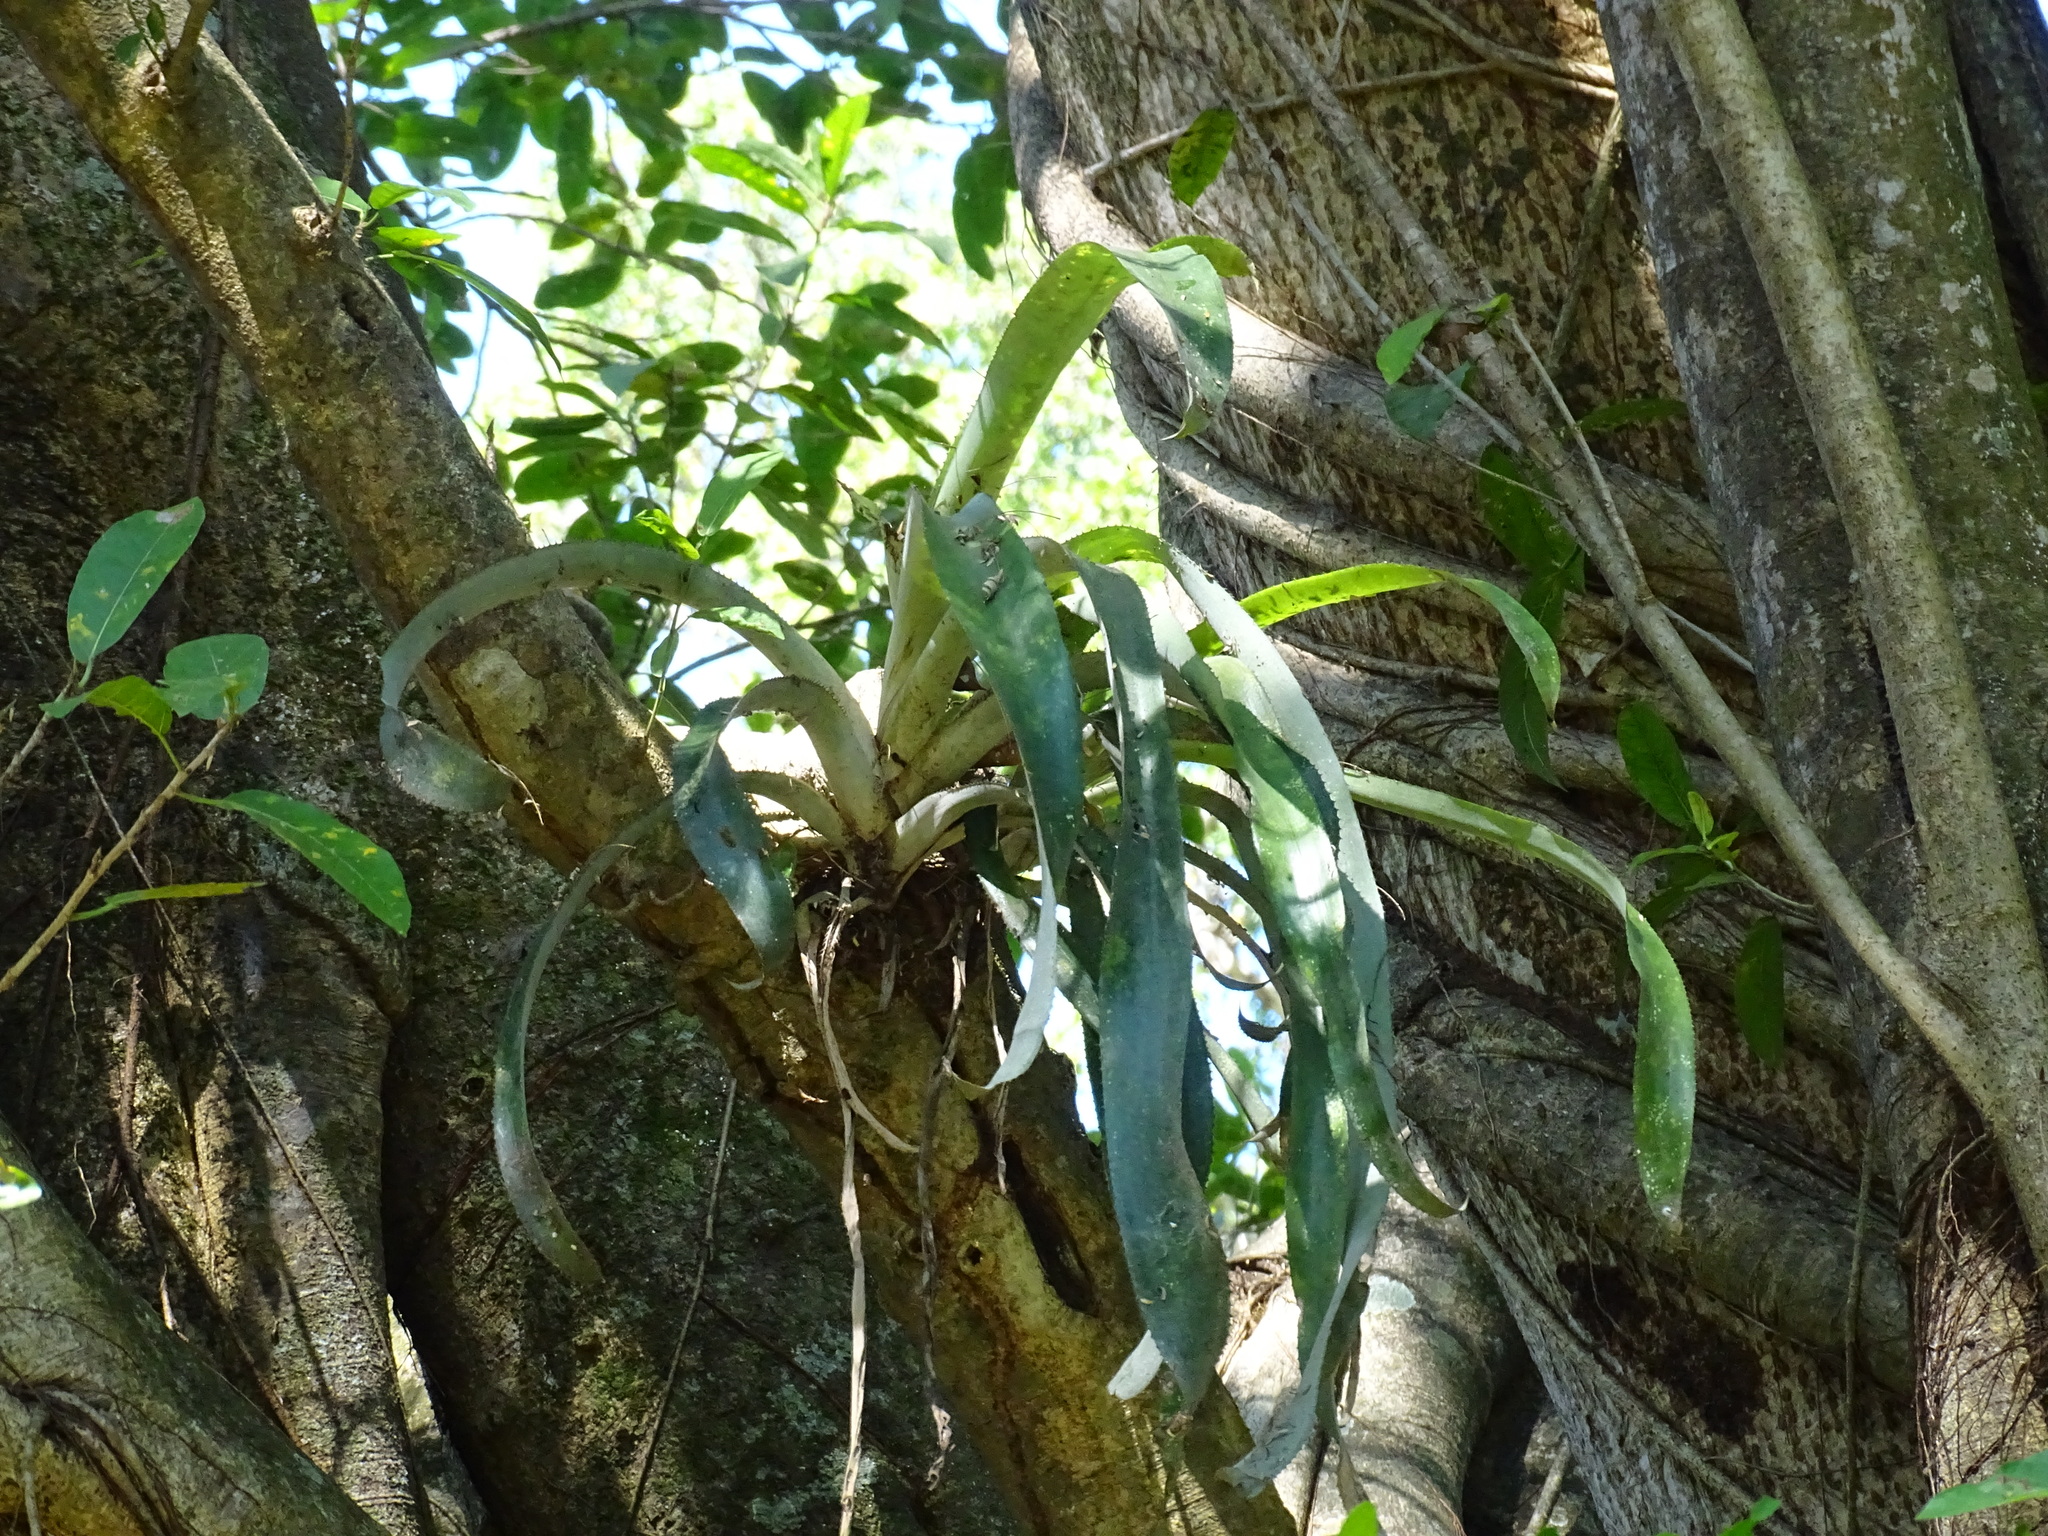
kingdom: Plantae
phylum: Tracheophyta
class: Liliopsida
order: Poales
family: Bromeliaceae
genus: Aechmea
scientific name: Aechmea matudae
